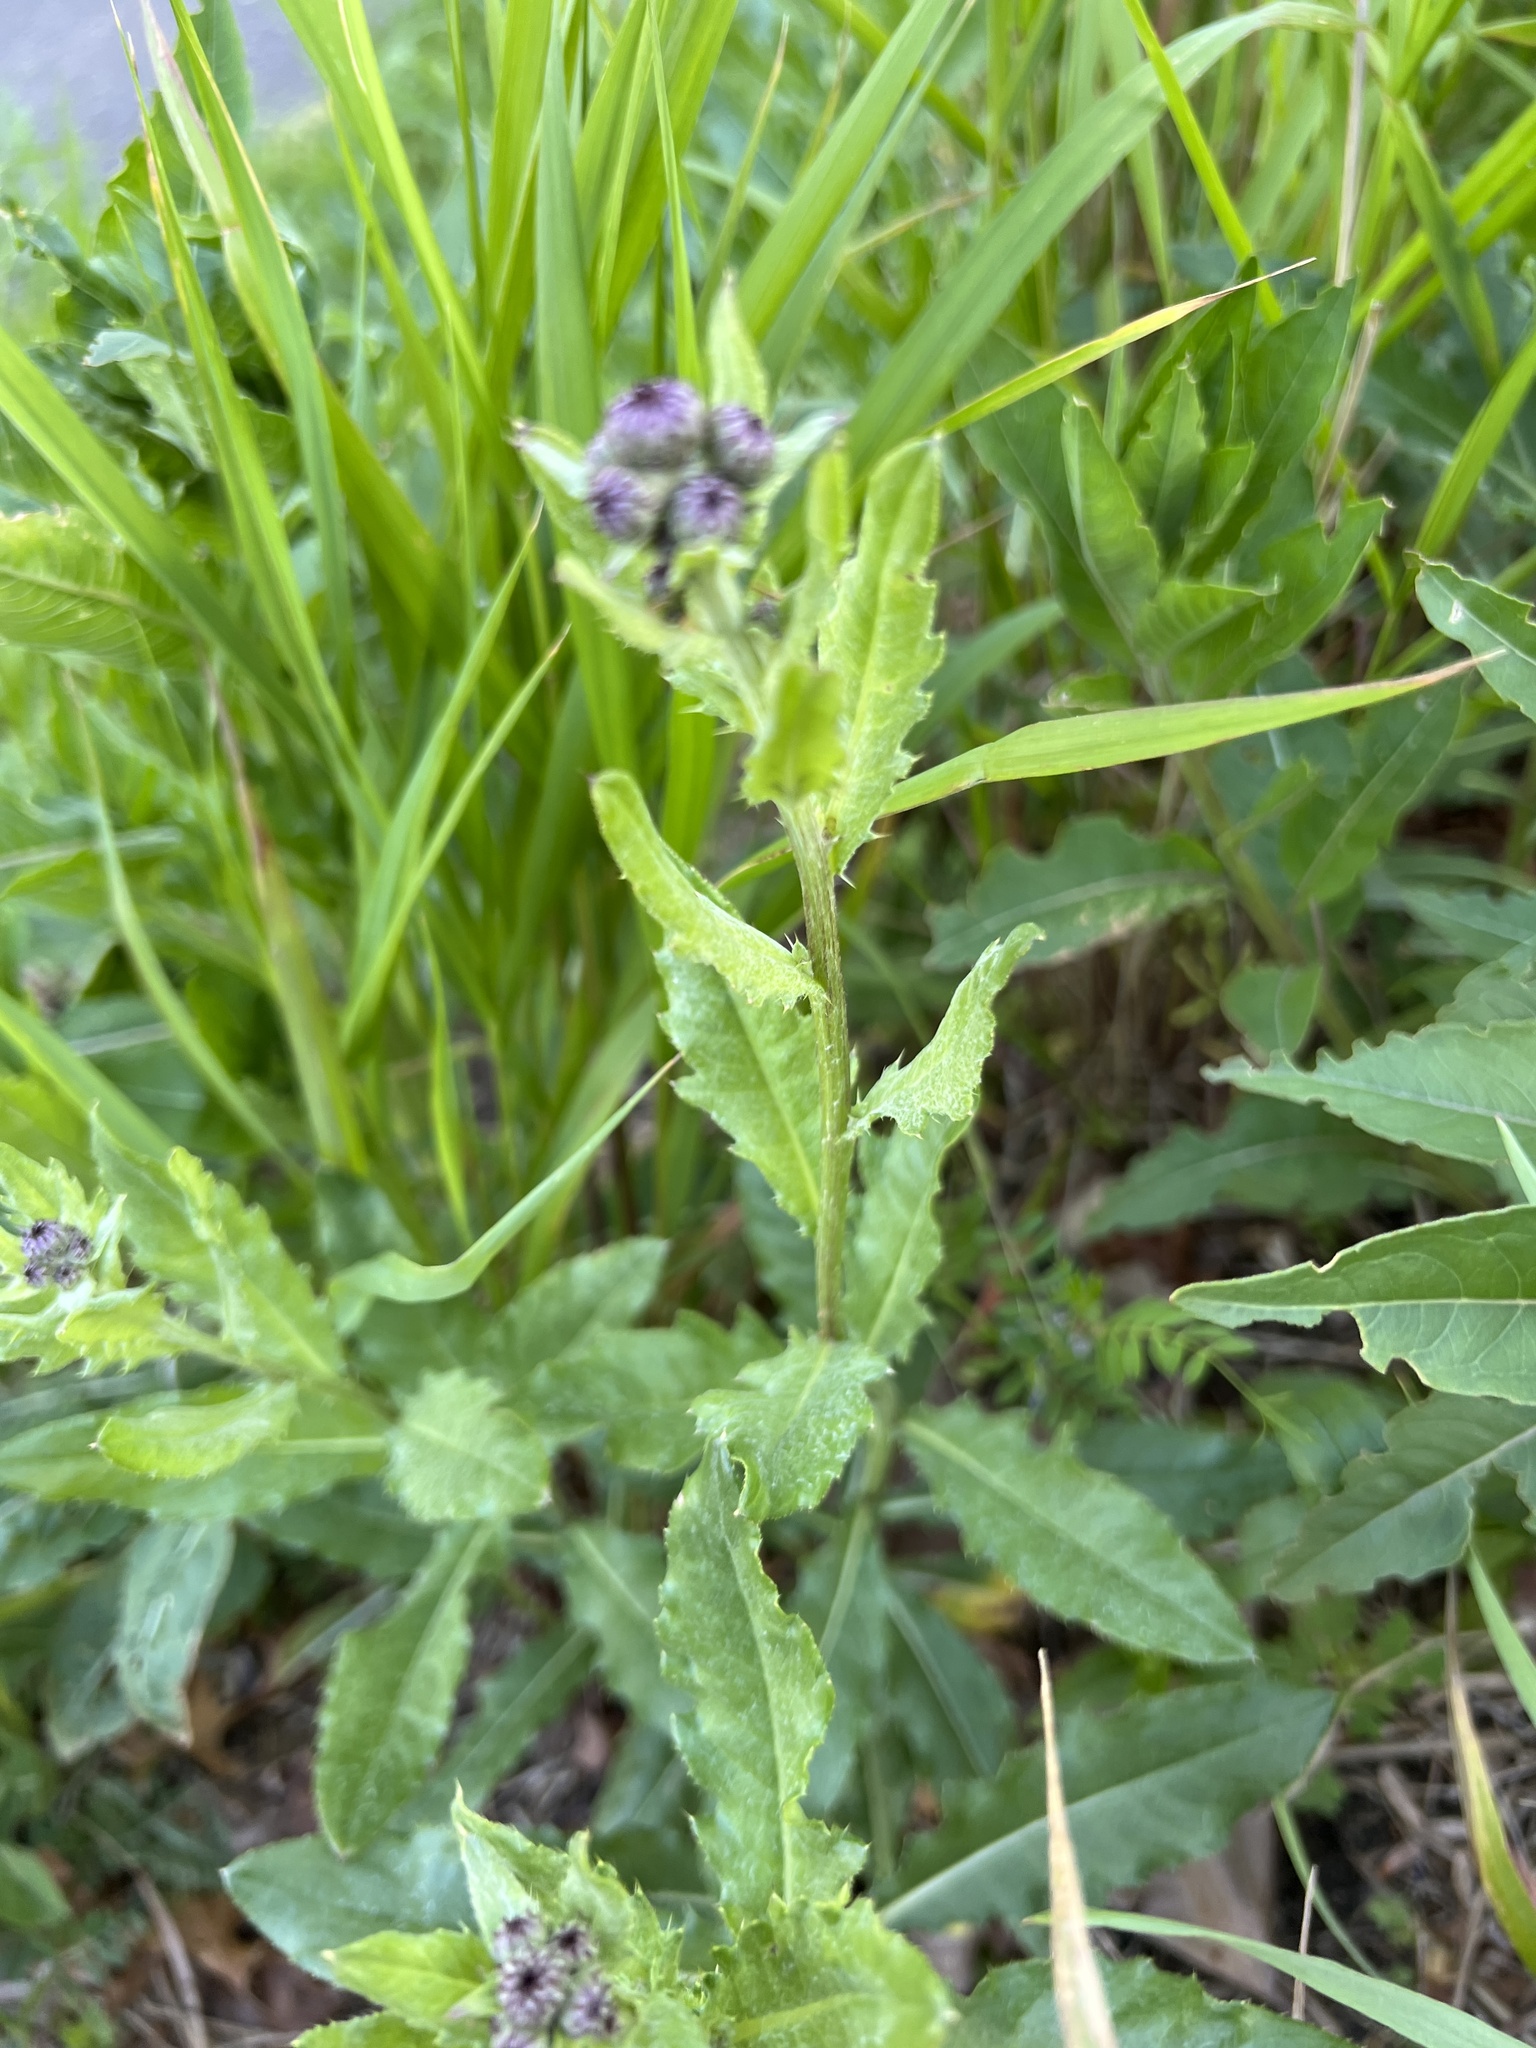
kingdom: Plantae
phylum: Tracheophyta
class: Magnoliopsida
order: Asterales
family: Asteraceae
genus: Cirsium
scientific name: Cirsium arvense
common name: Creeping thistle
